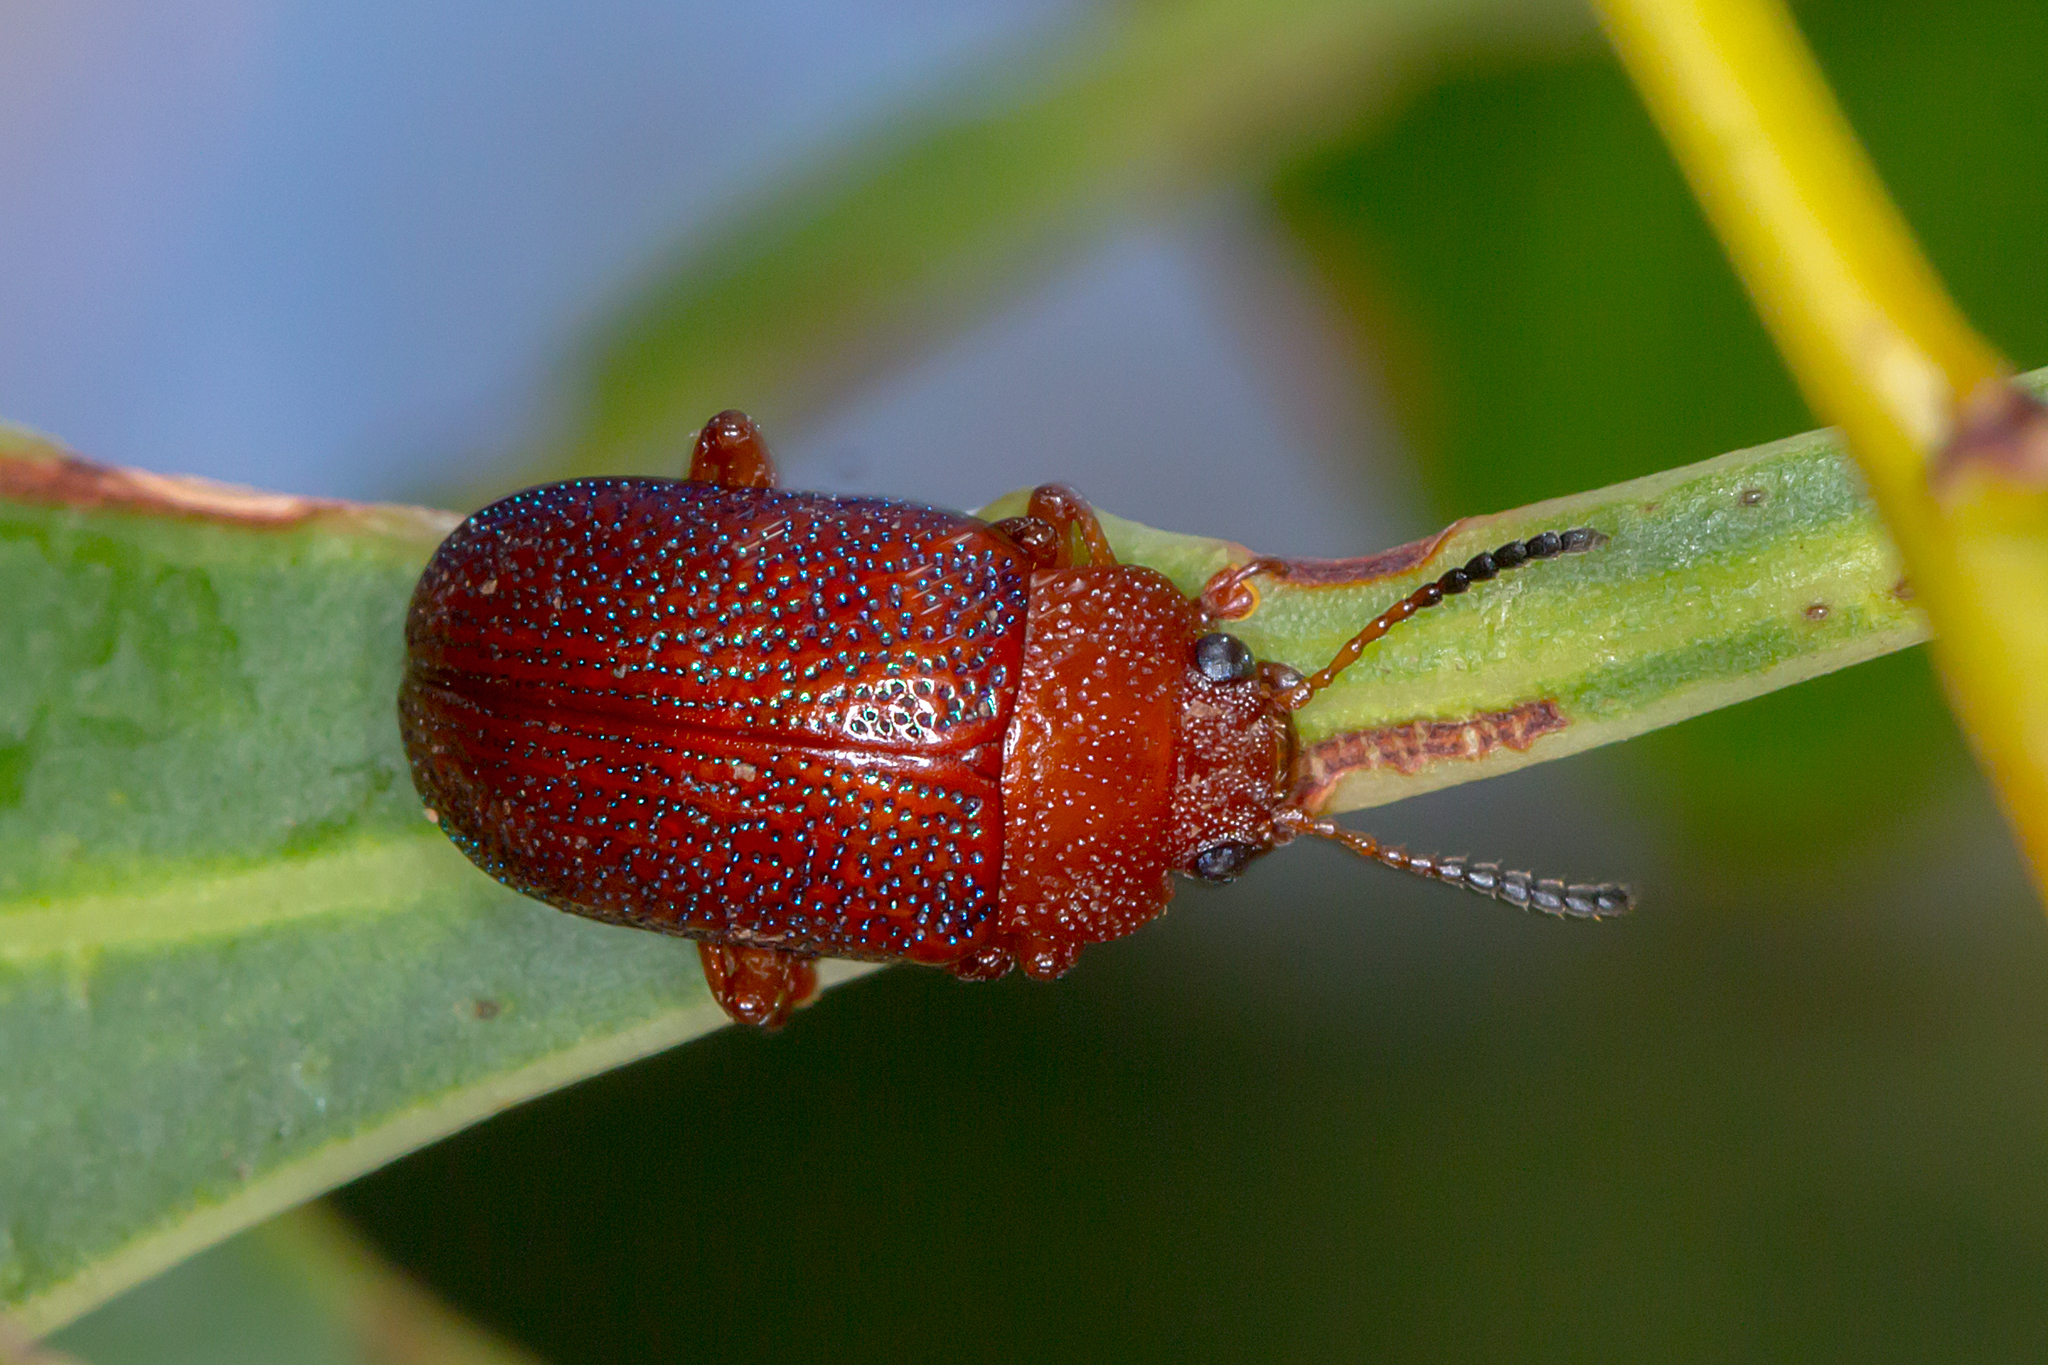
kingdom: Animalia
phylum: Arthropoda
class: Insecta
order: Coleoptera
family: Chrysomelidae
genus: Calomela
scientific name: Calomela
